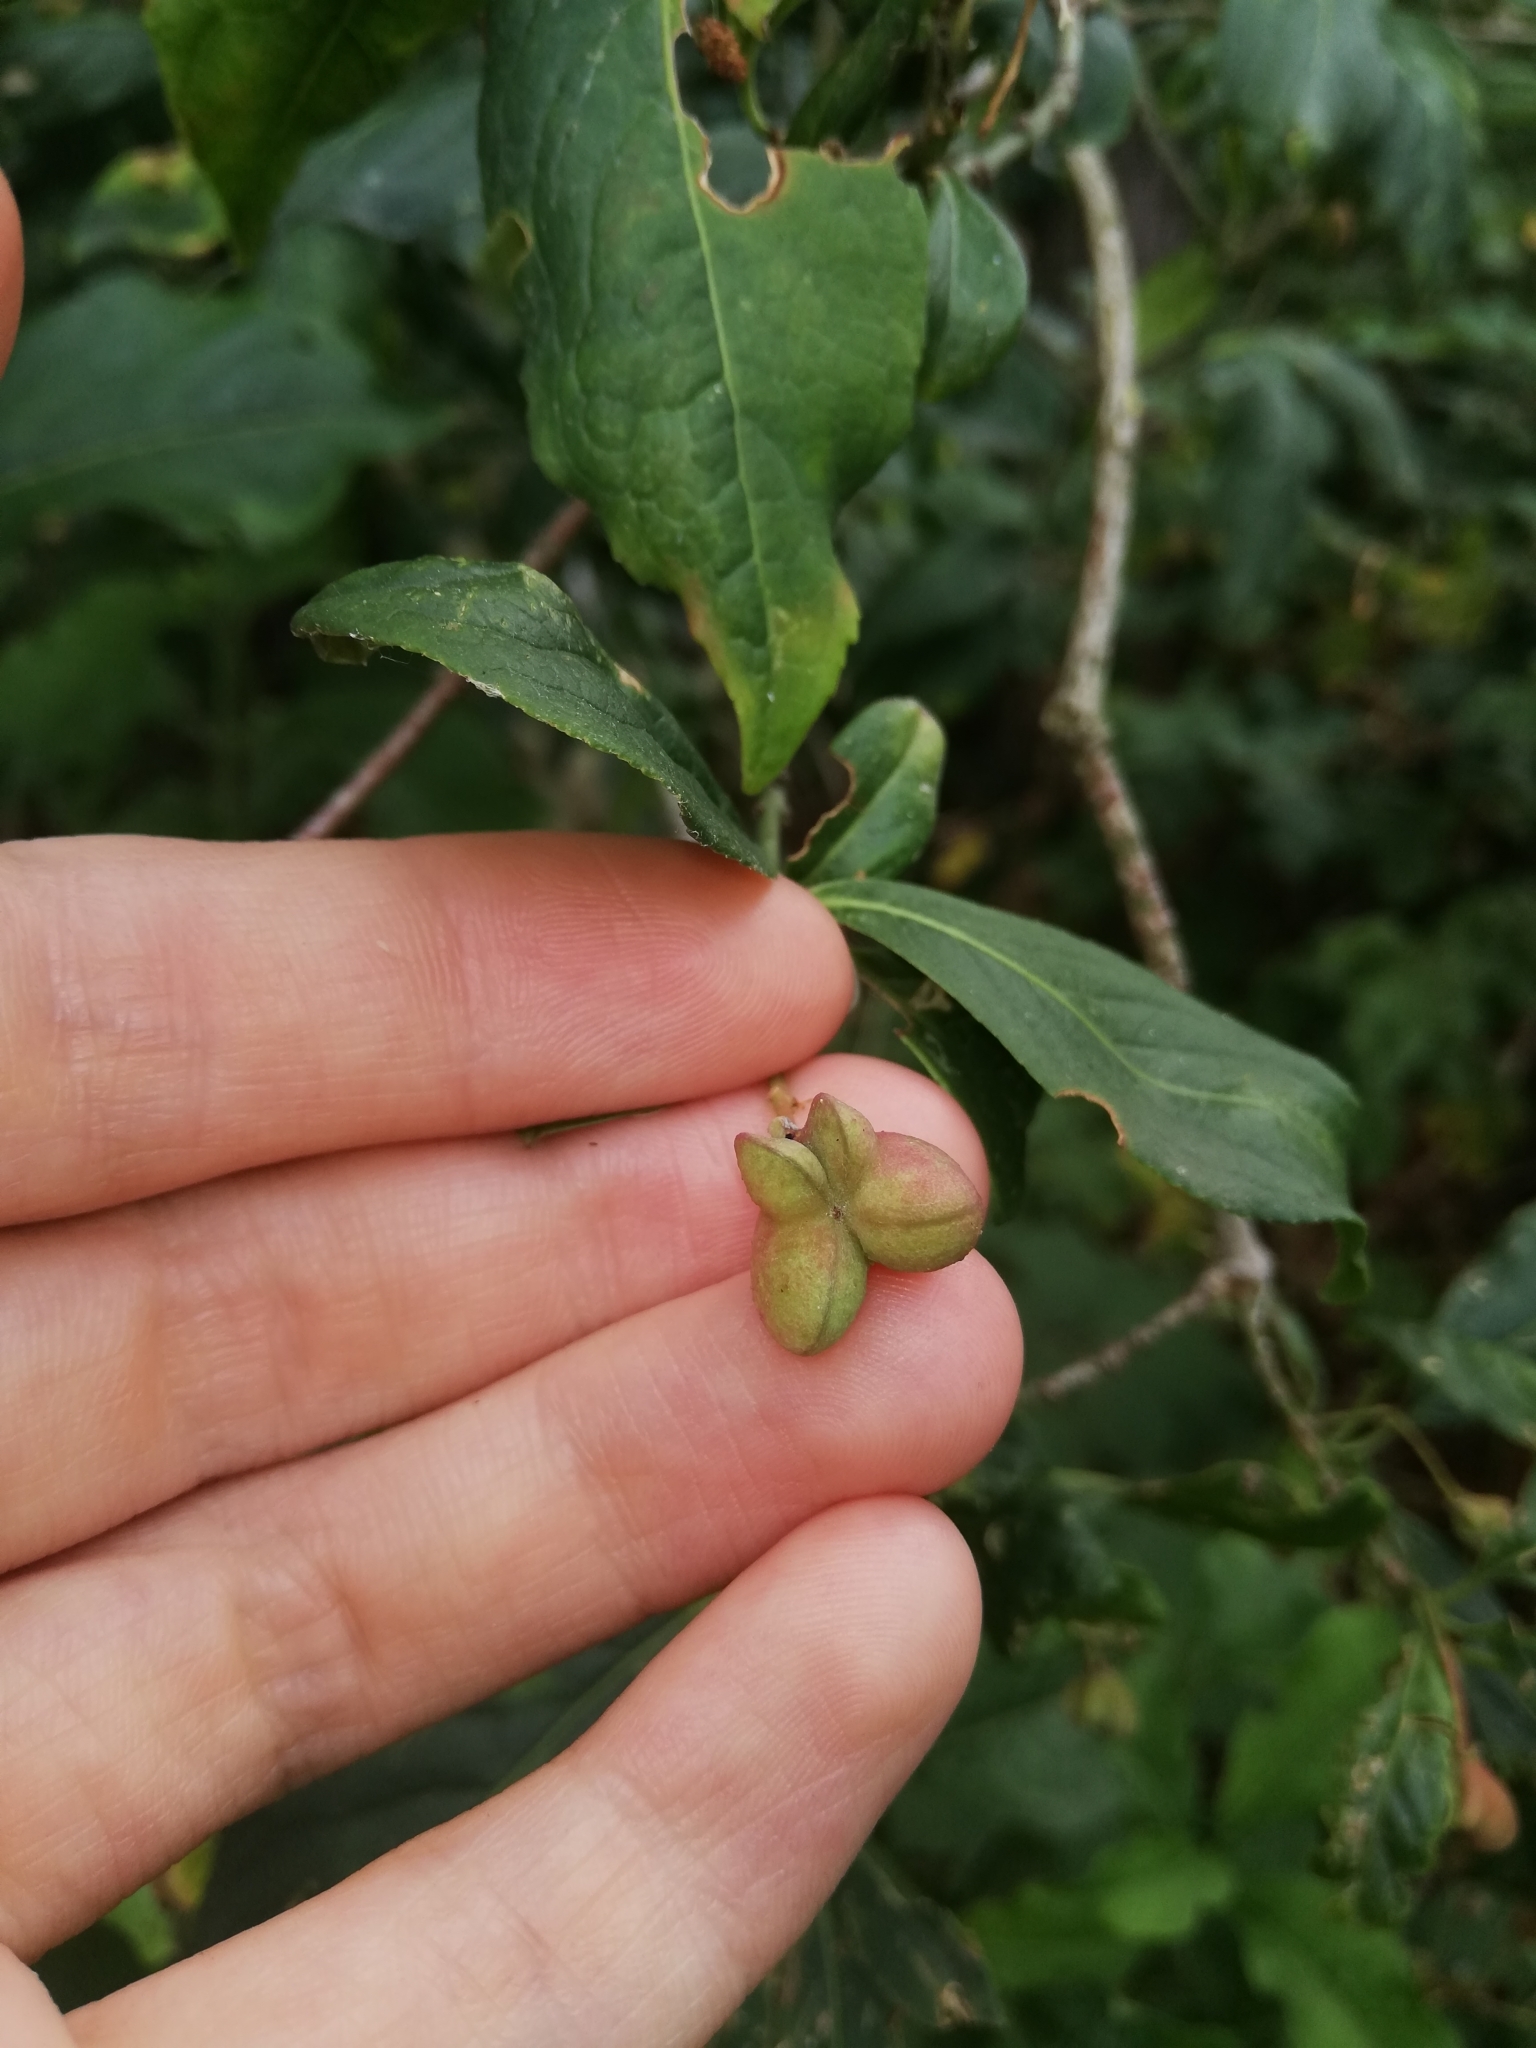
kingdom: Plantae
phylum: Tracheophyta
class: Magnoliopsida
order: Celastrales
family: Celastraceae
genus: Euonymus
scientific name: Euonymus europaeus
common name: Spindle
